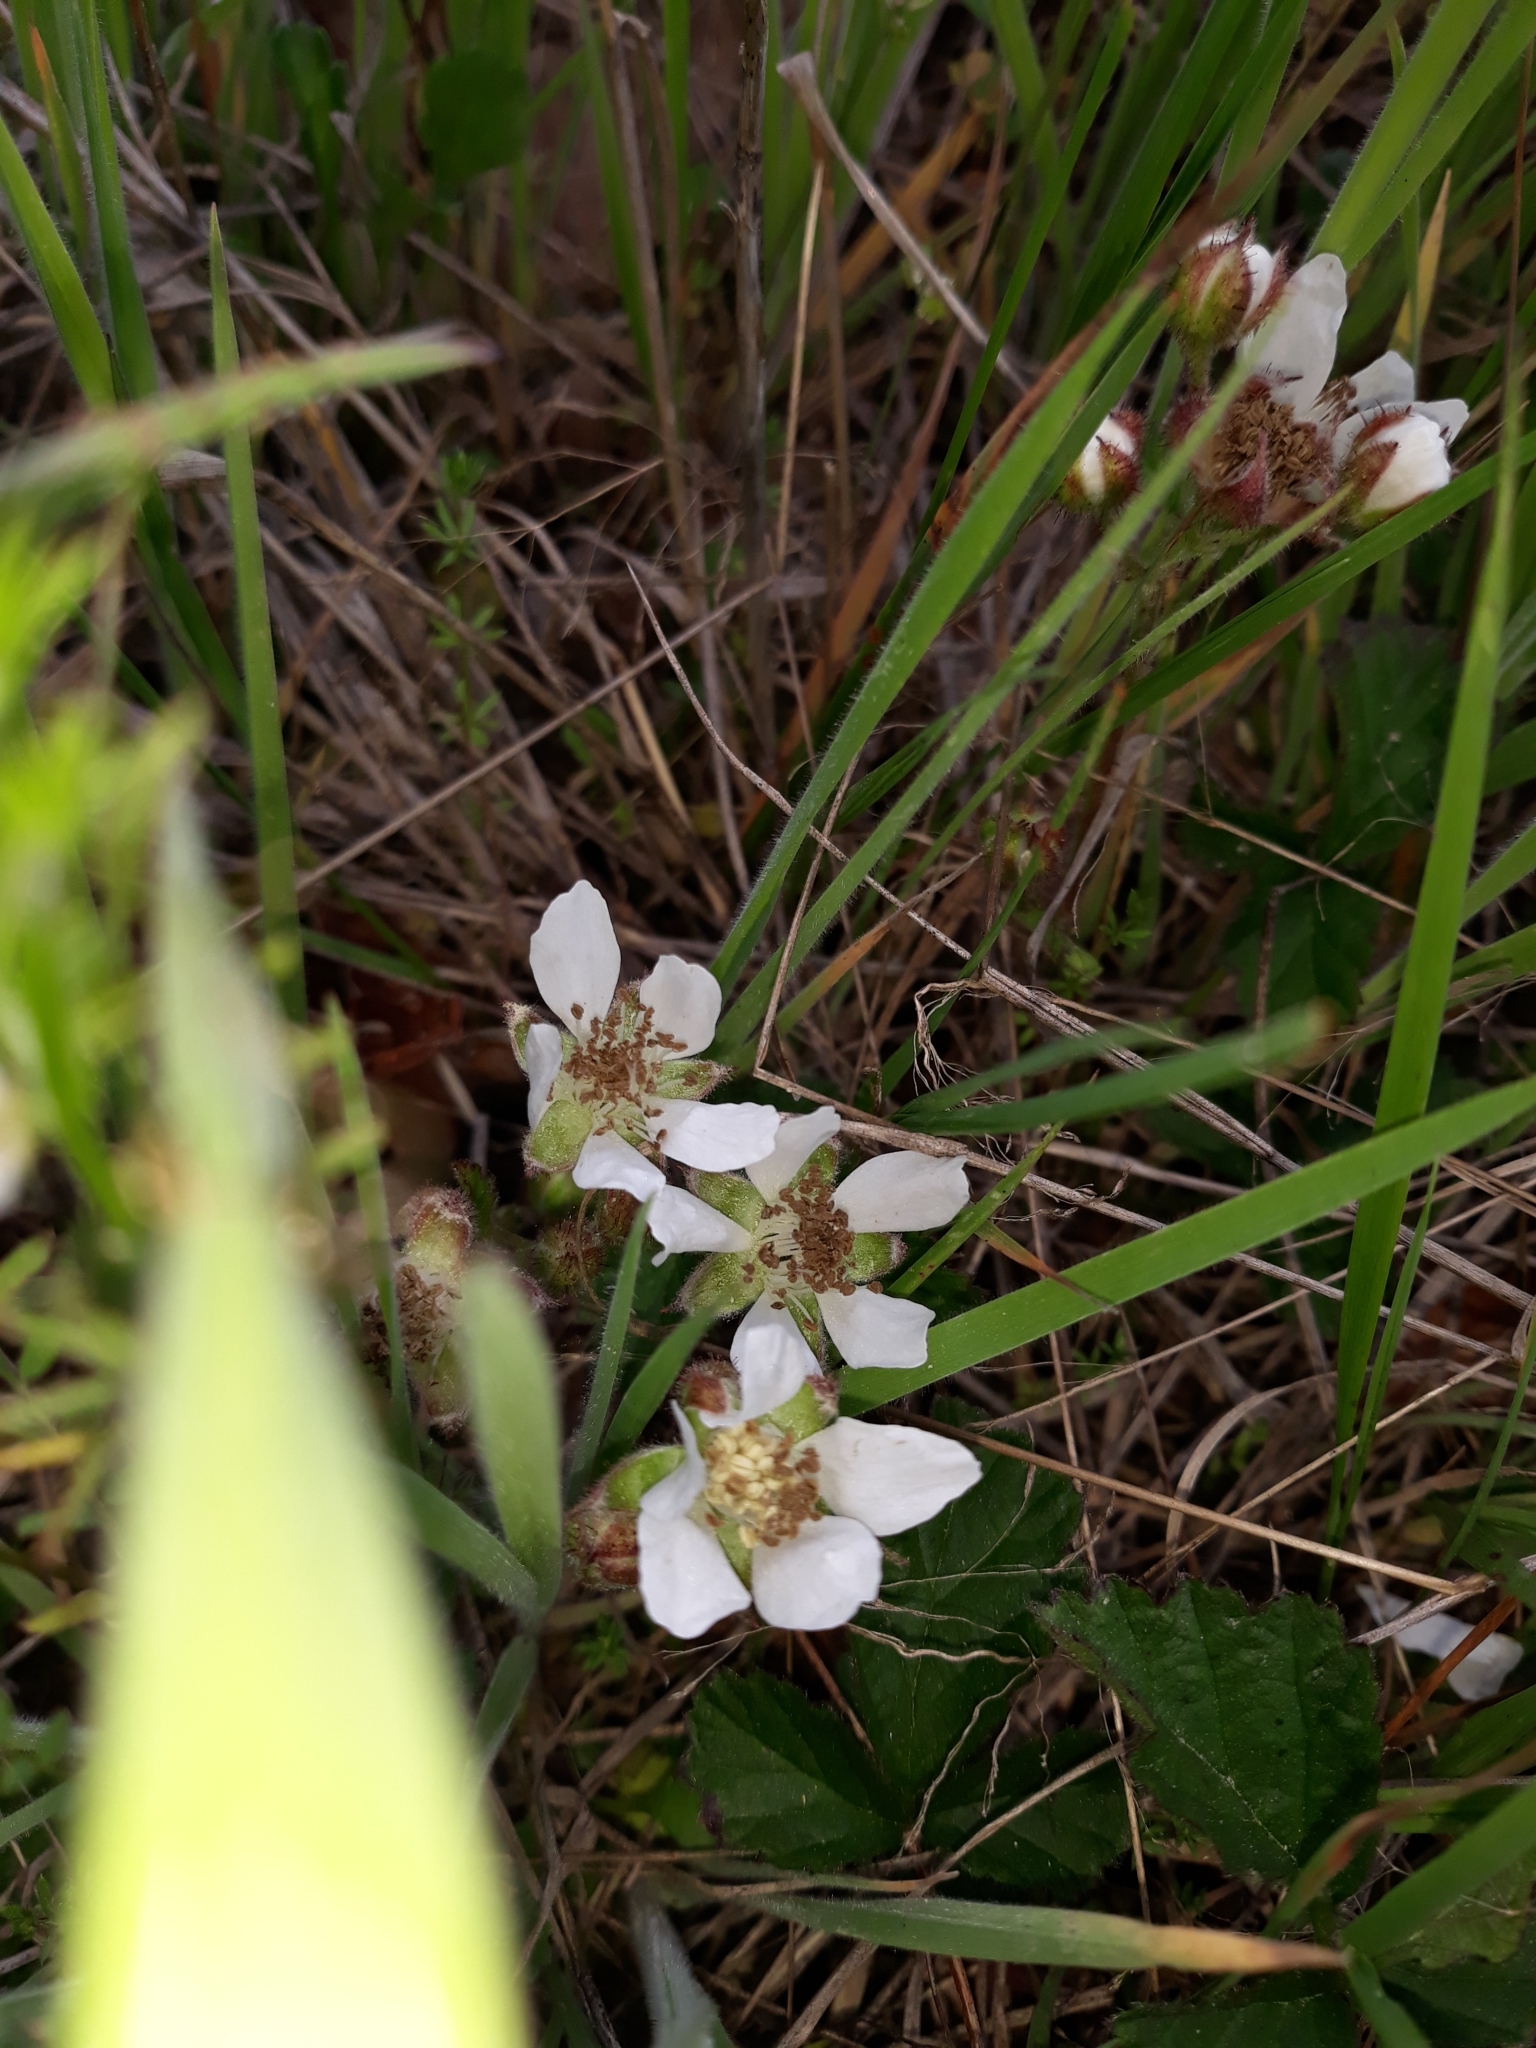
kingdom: Plantae
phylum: Tracheophyta
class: Magnoliopsida
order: Rosales
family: Rosaceae
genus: Rubus
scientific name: Rubus ursinus
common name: Pacific blackberry
